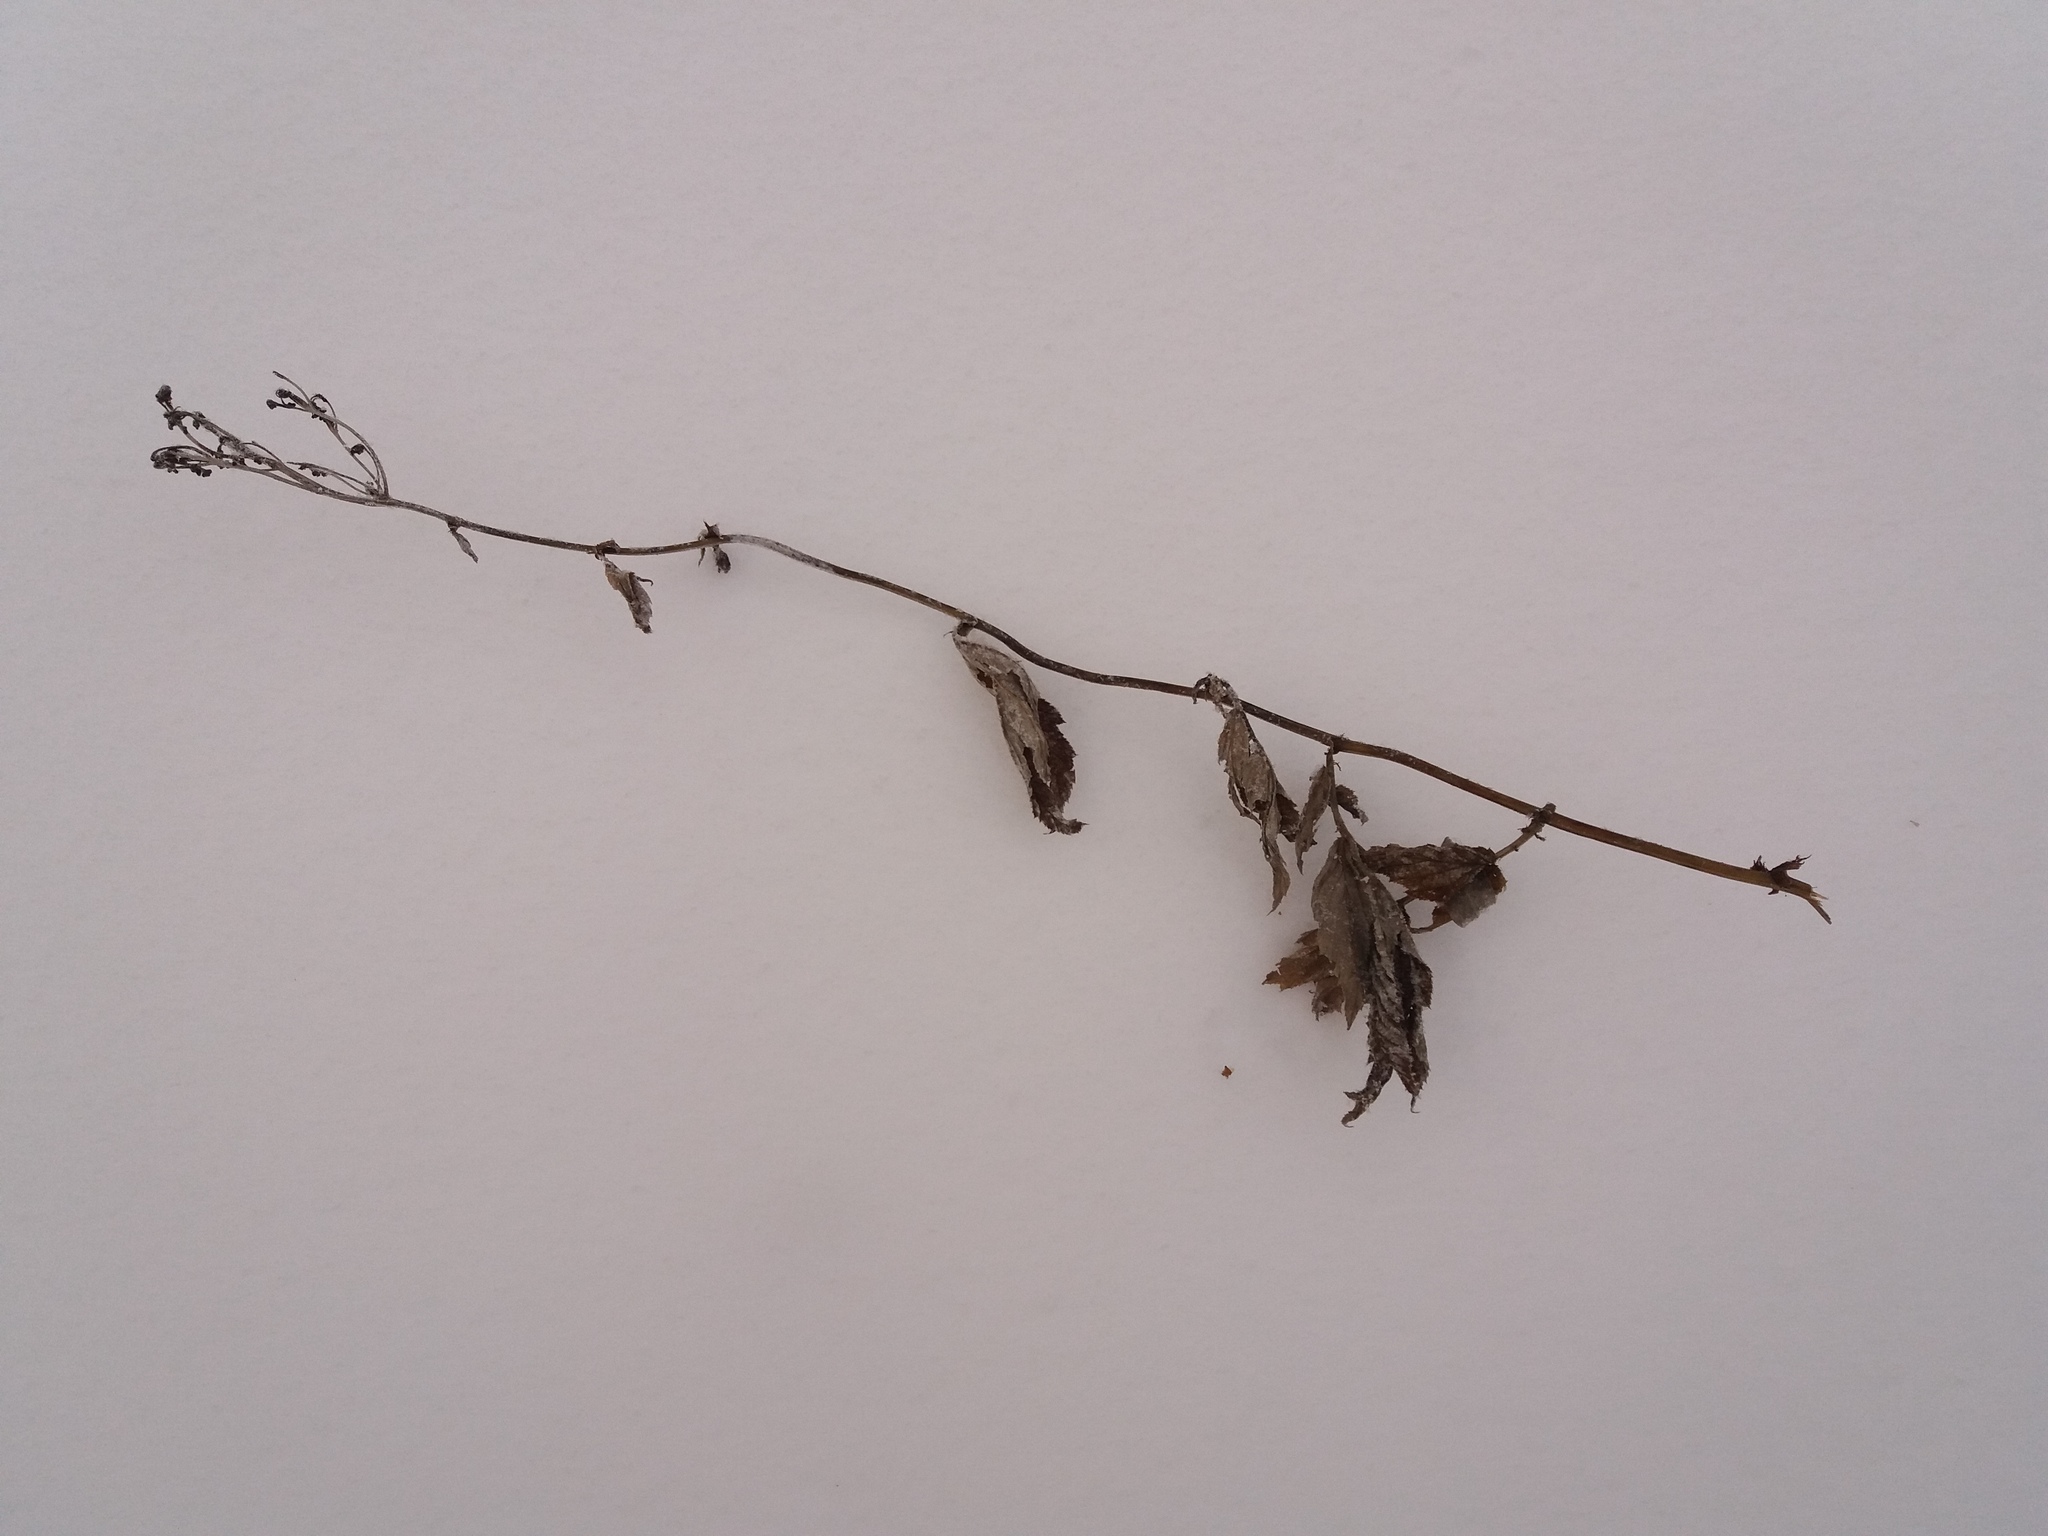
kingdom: Plantae
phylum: Tracheophyta
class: Magnoliopsida
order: Rosales
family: Rosaceae
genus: Filipendula
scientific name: Filipendula ulmaria
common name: Meadowsweet
